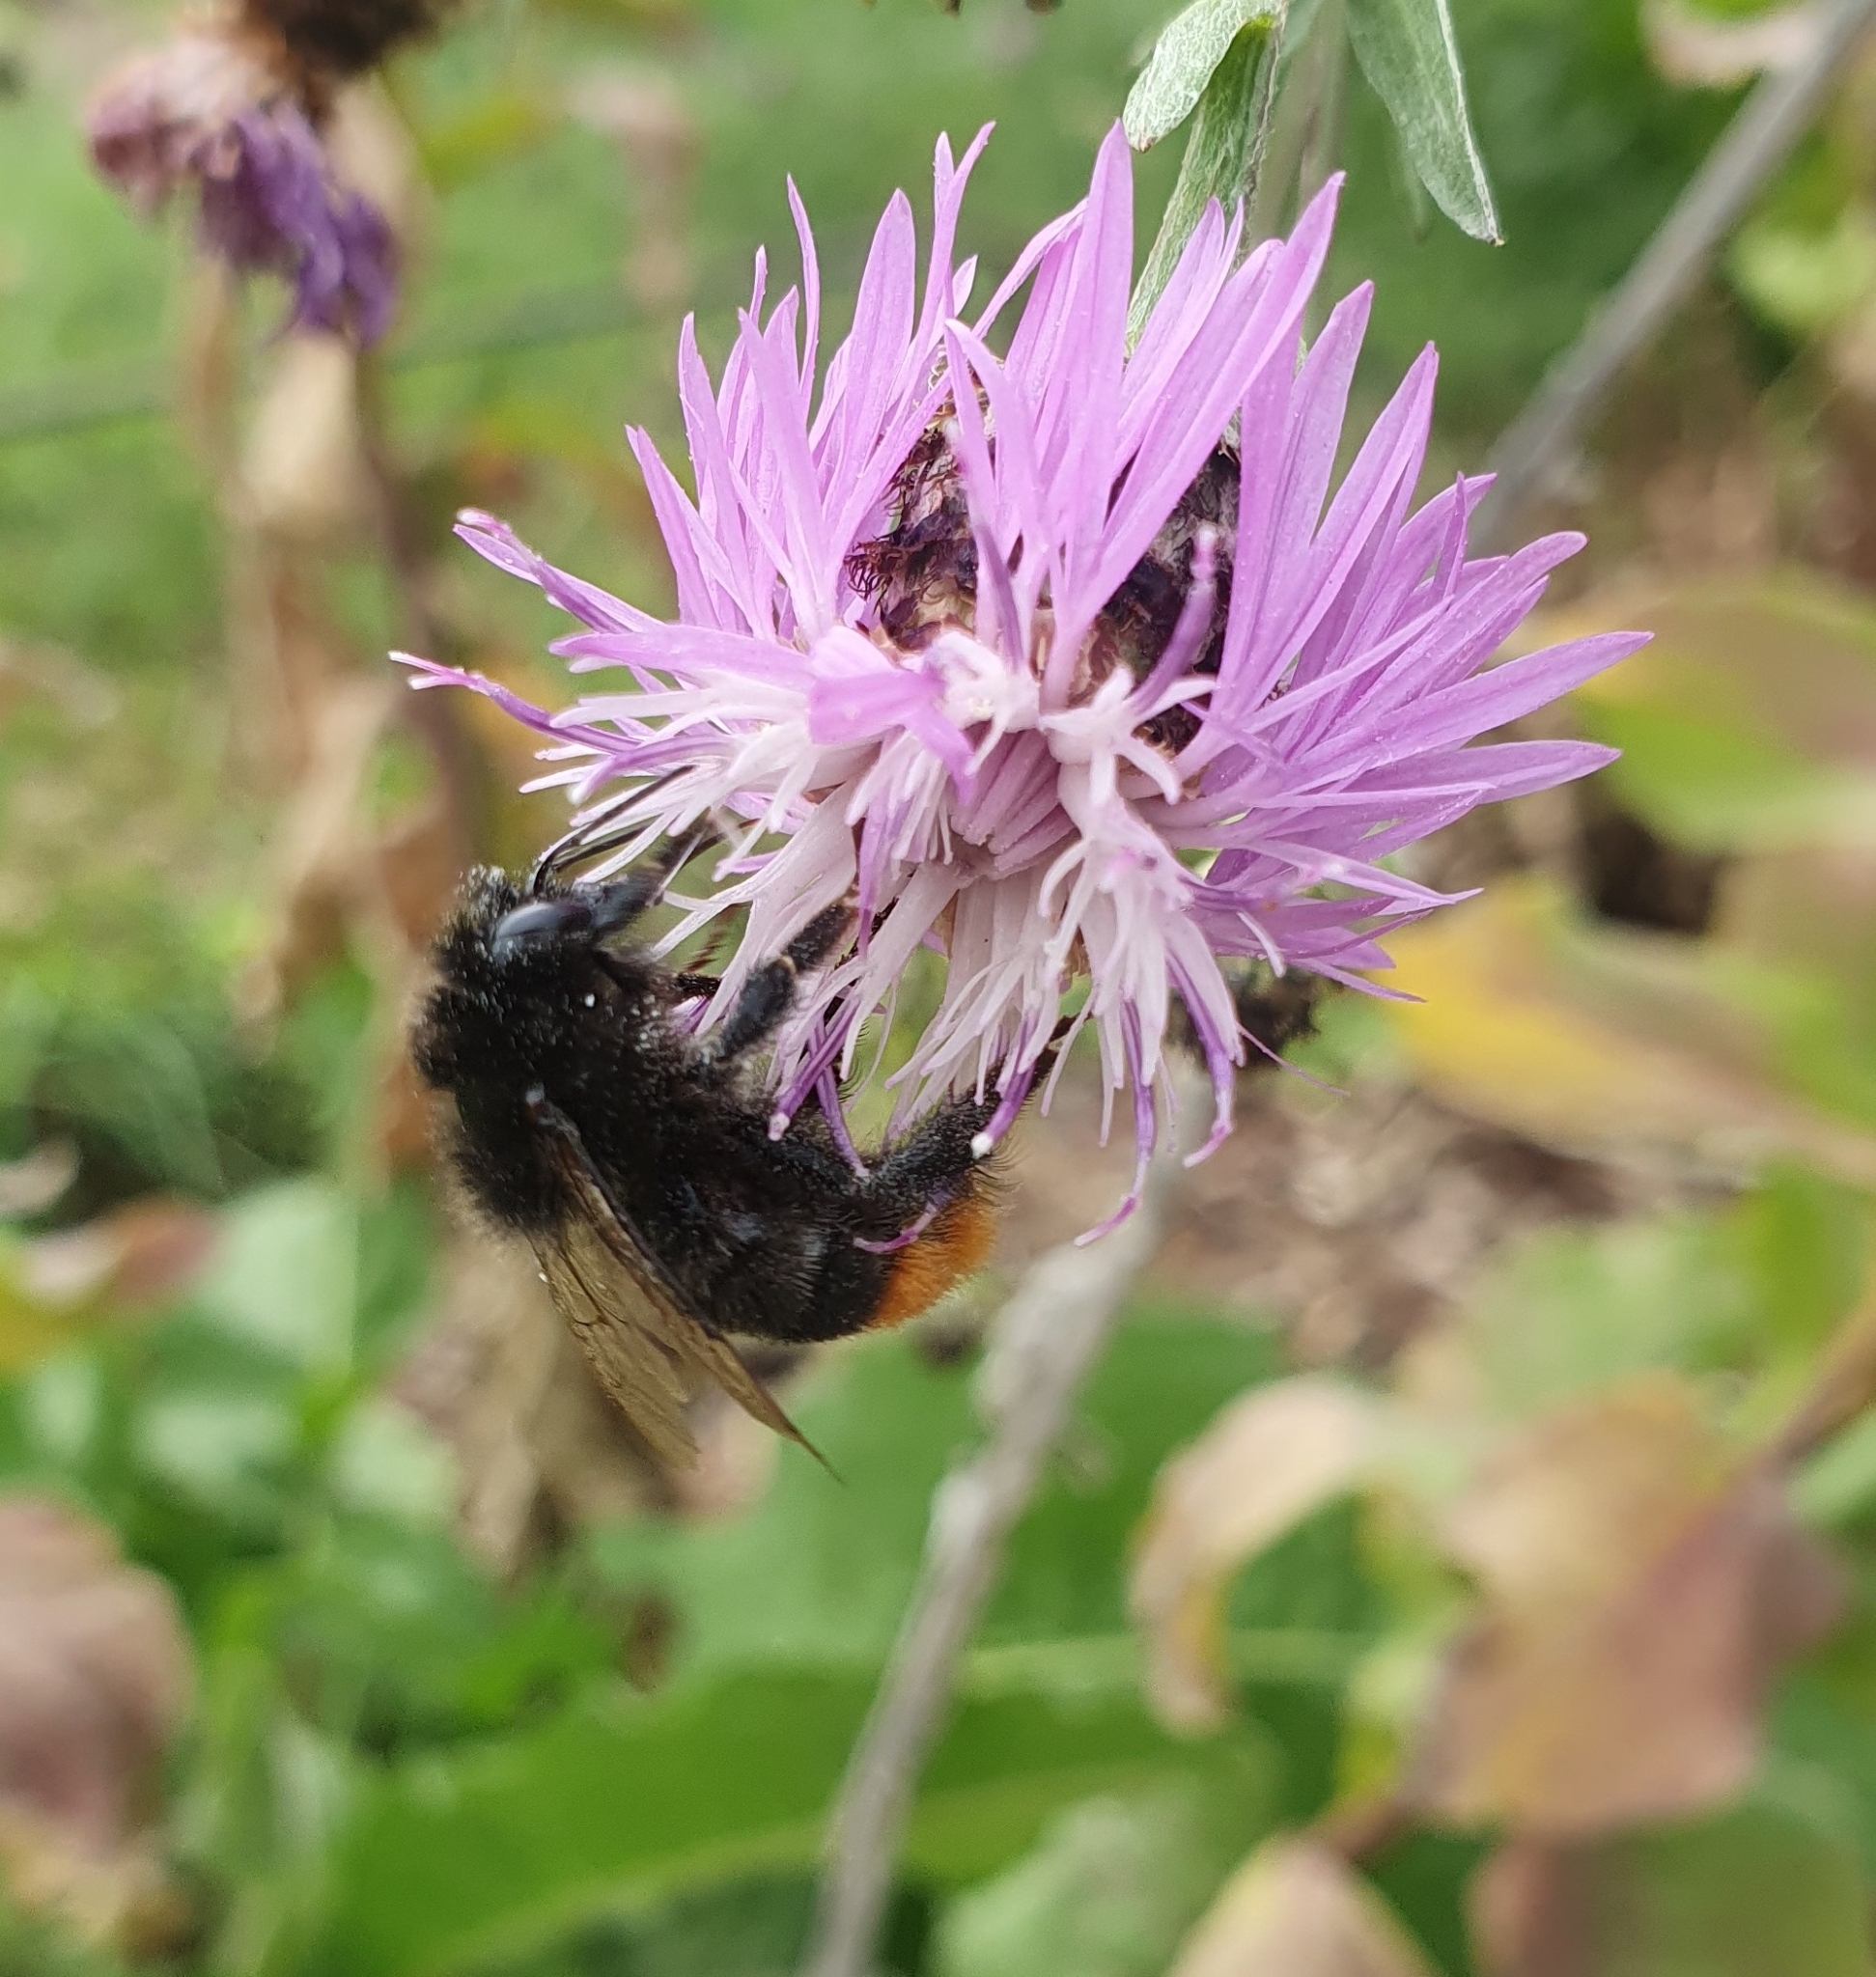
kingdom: Animalia
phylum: Arthropoda
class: Insecta
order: Hymenoptera
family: Apidae
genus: Bombus
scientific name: Bombus lapidarius
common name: Large red-tailed humble-bee
